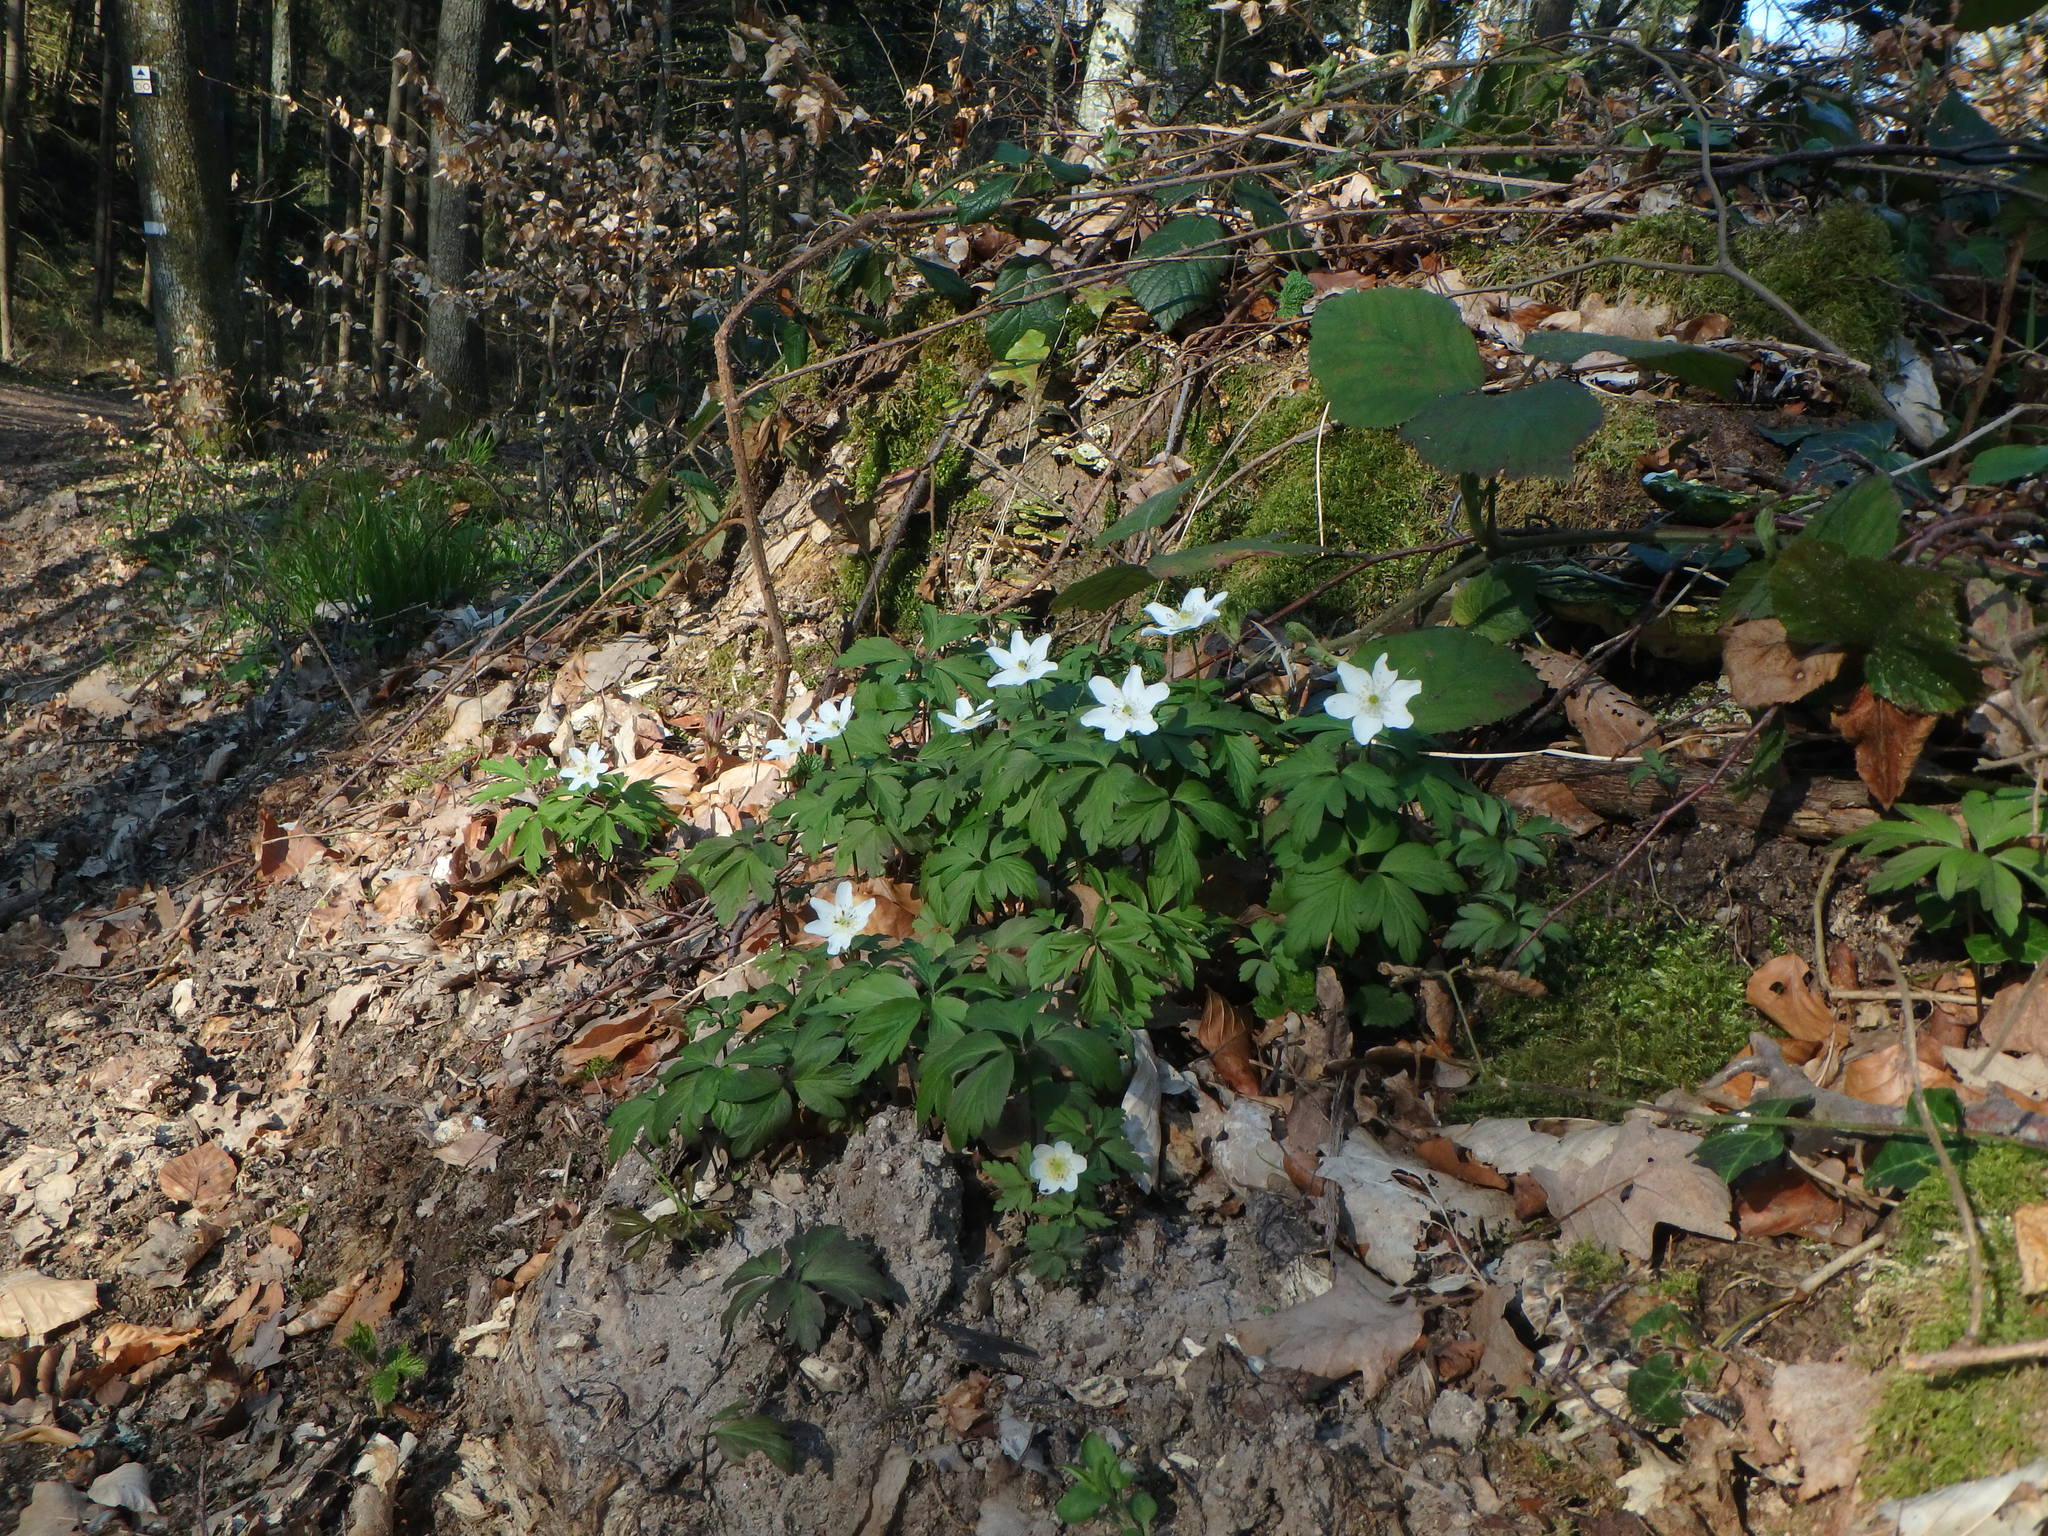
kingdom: Plantae
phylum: Tracheophyta
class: Magnoliopsida
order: Ranunculales
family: Ranunculaceae
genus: Anemone
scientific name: Anemone nemorosa
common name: Wood anemone
